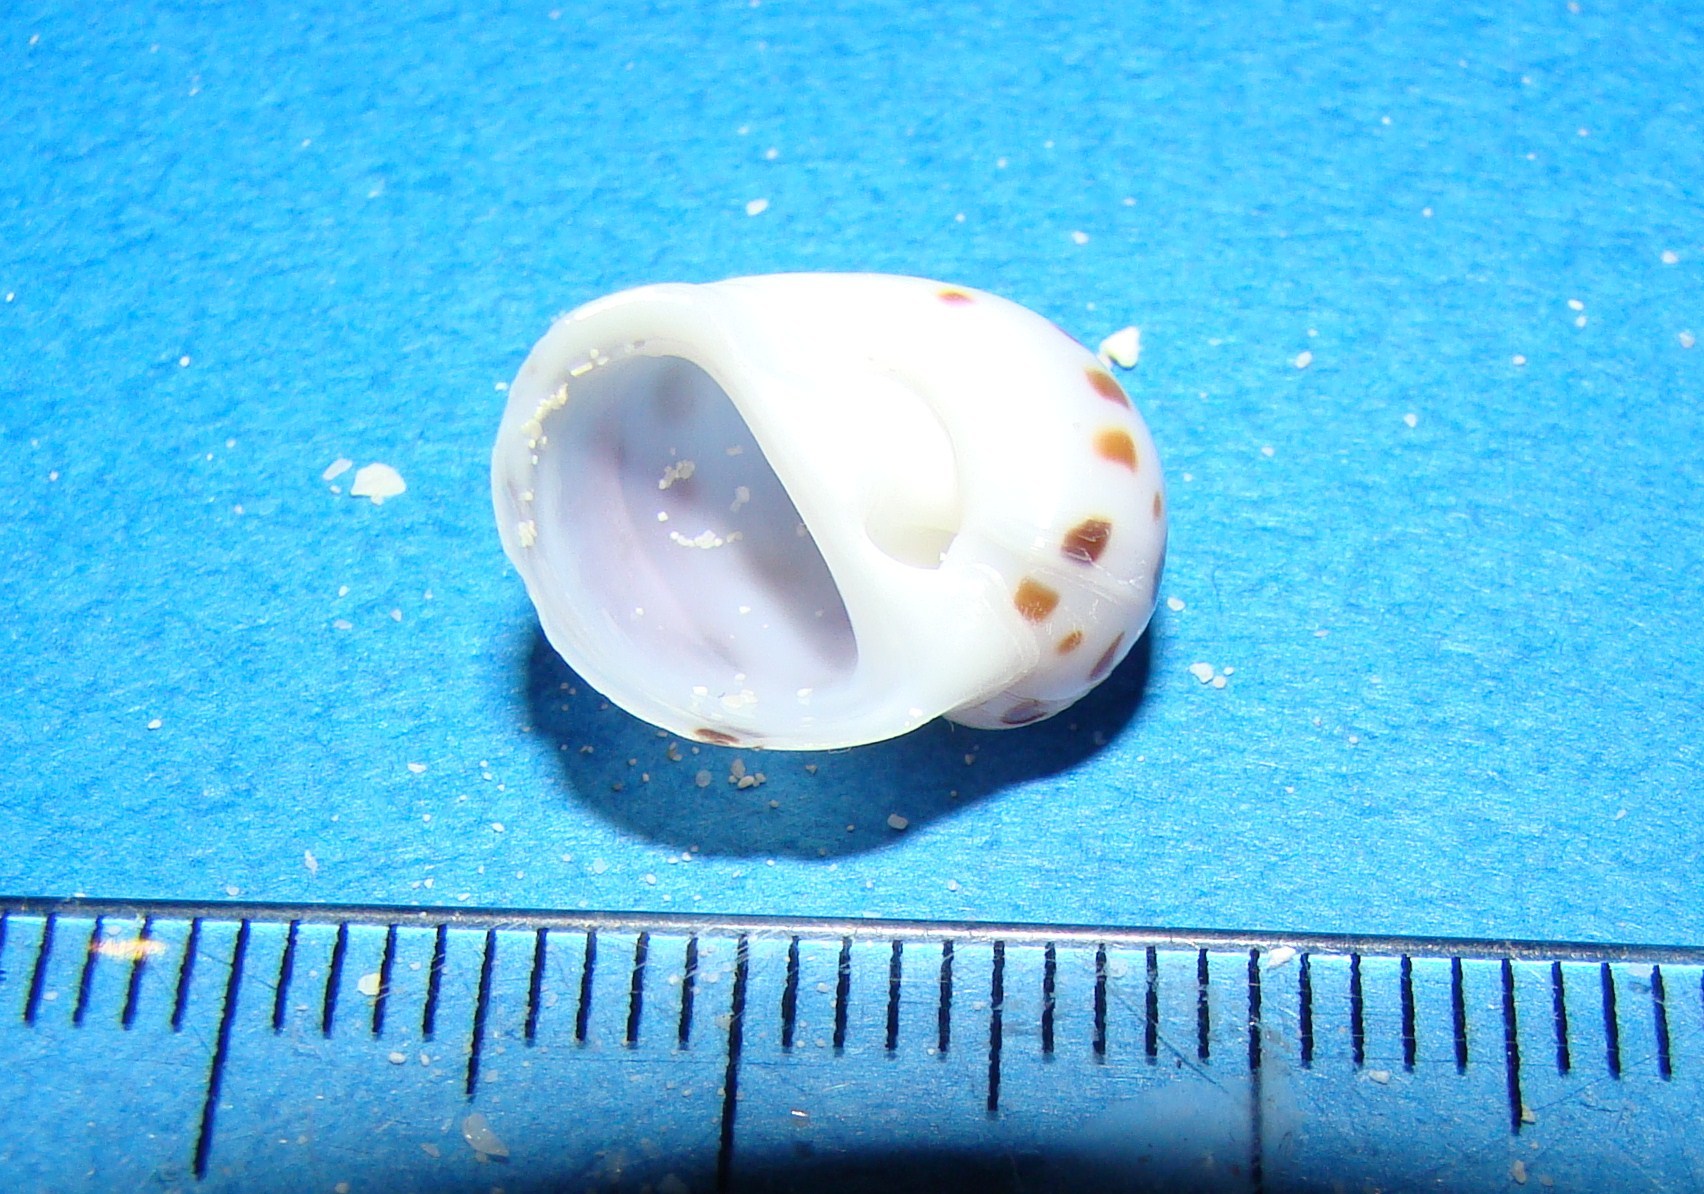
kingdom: Animalia
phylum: Mollusca
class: Gastropoda
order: Littorinimorpha
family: Naticidae
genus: Naticarius
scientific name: Naticarius onca
